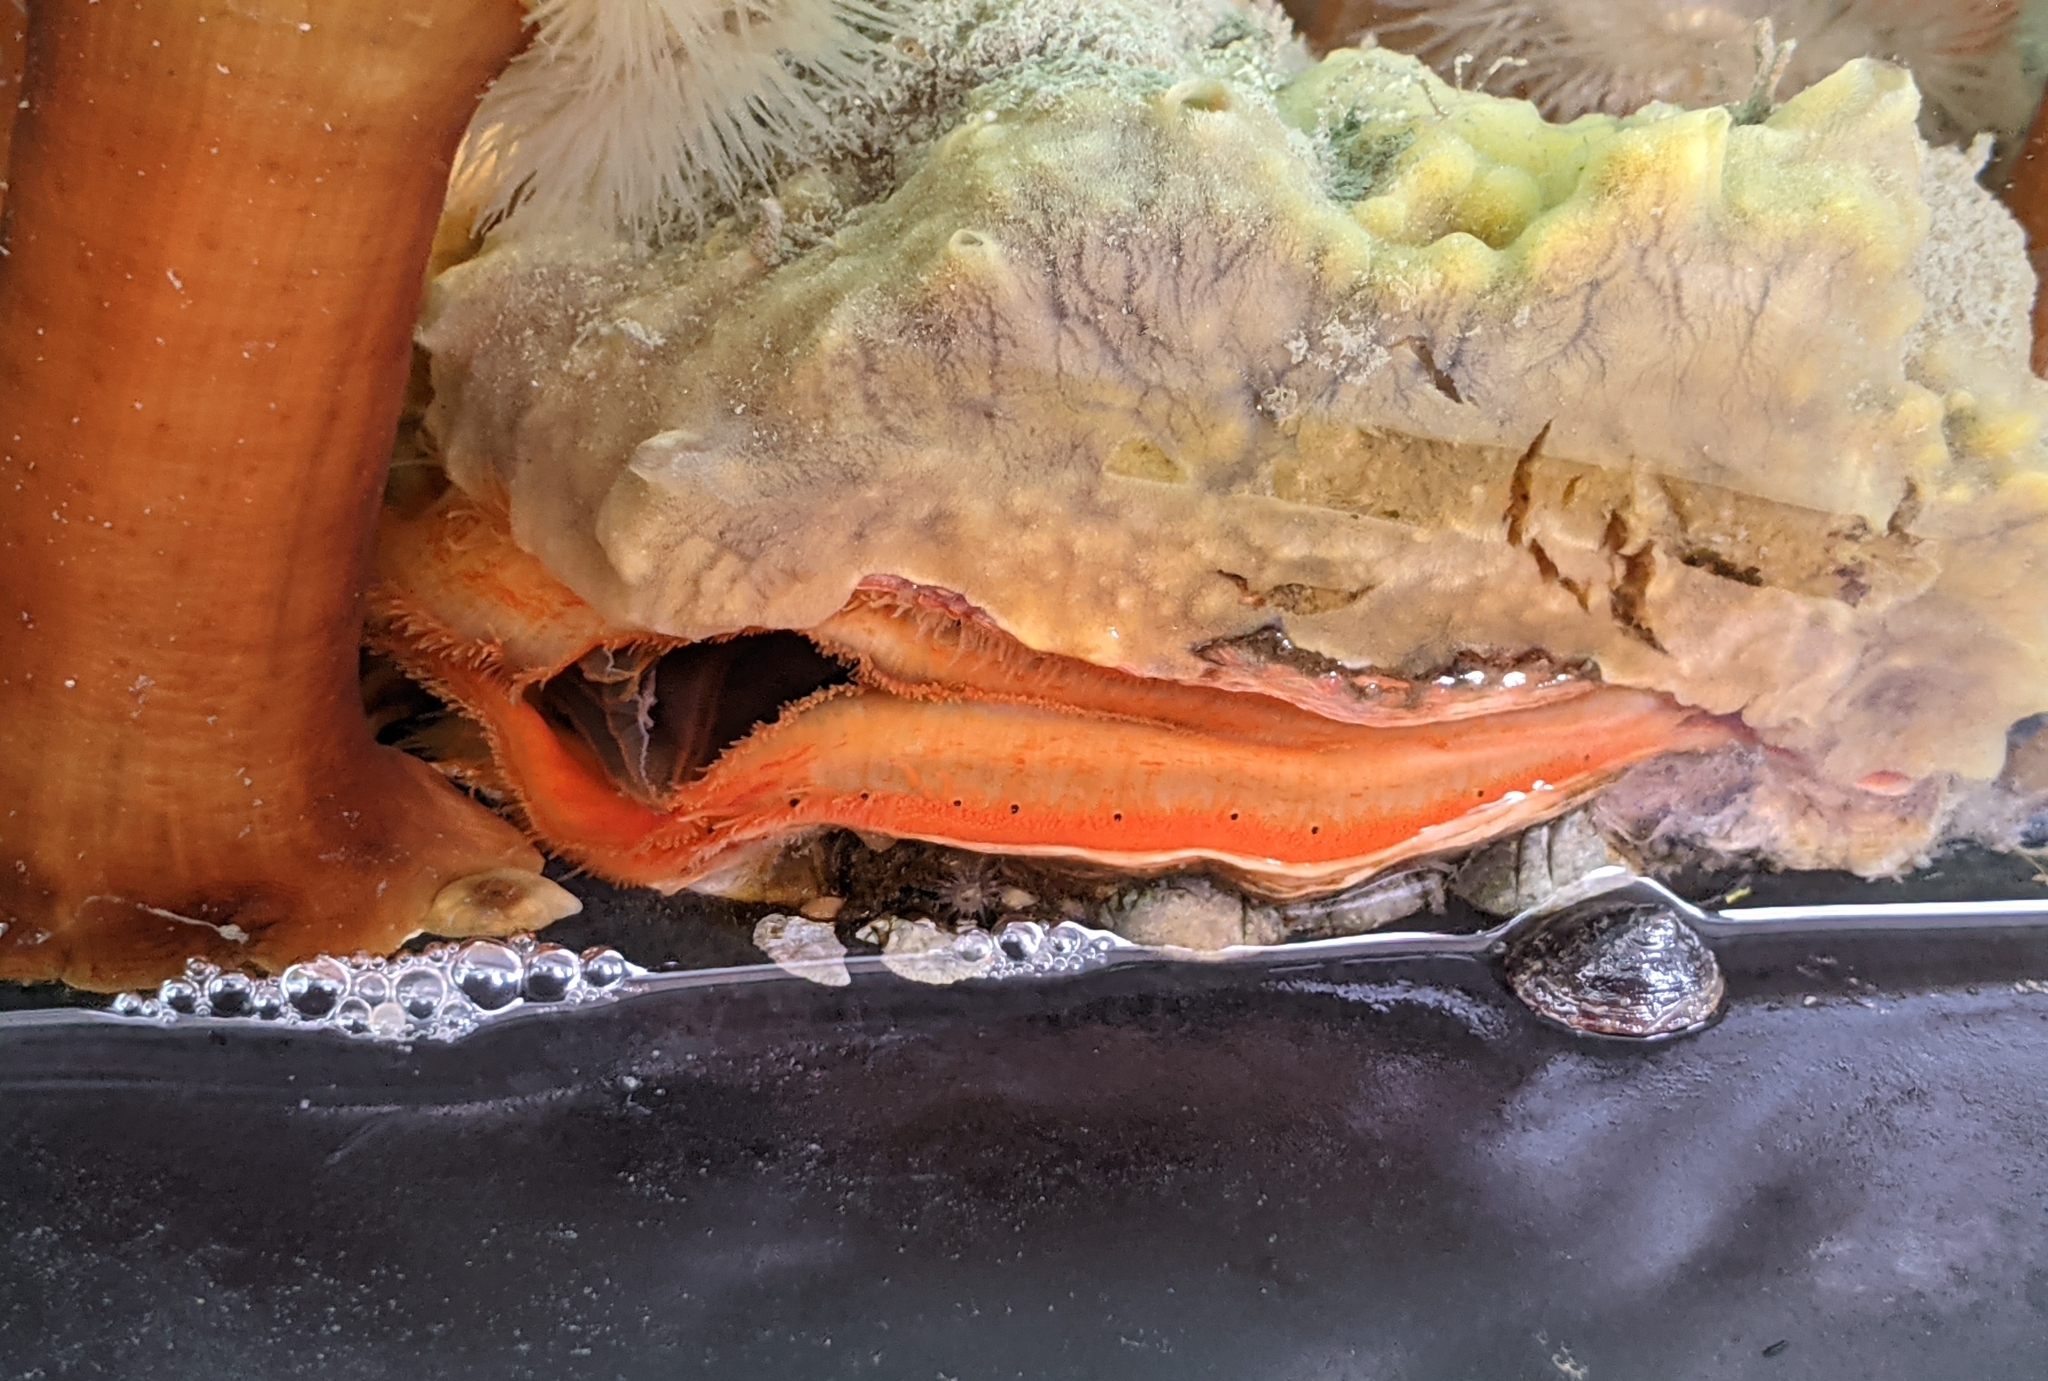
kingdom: Animalia
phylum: Mollusca
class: Bivalvia
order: Pectinida
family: Pectinidae
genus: Crassadoma
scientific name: Crassadoma gigantea
